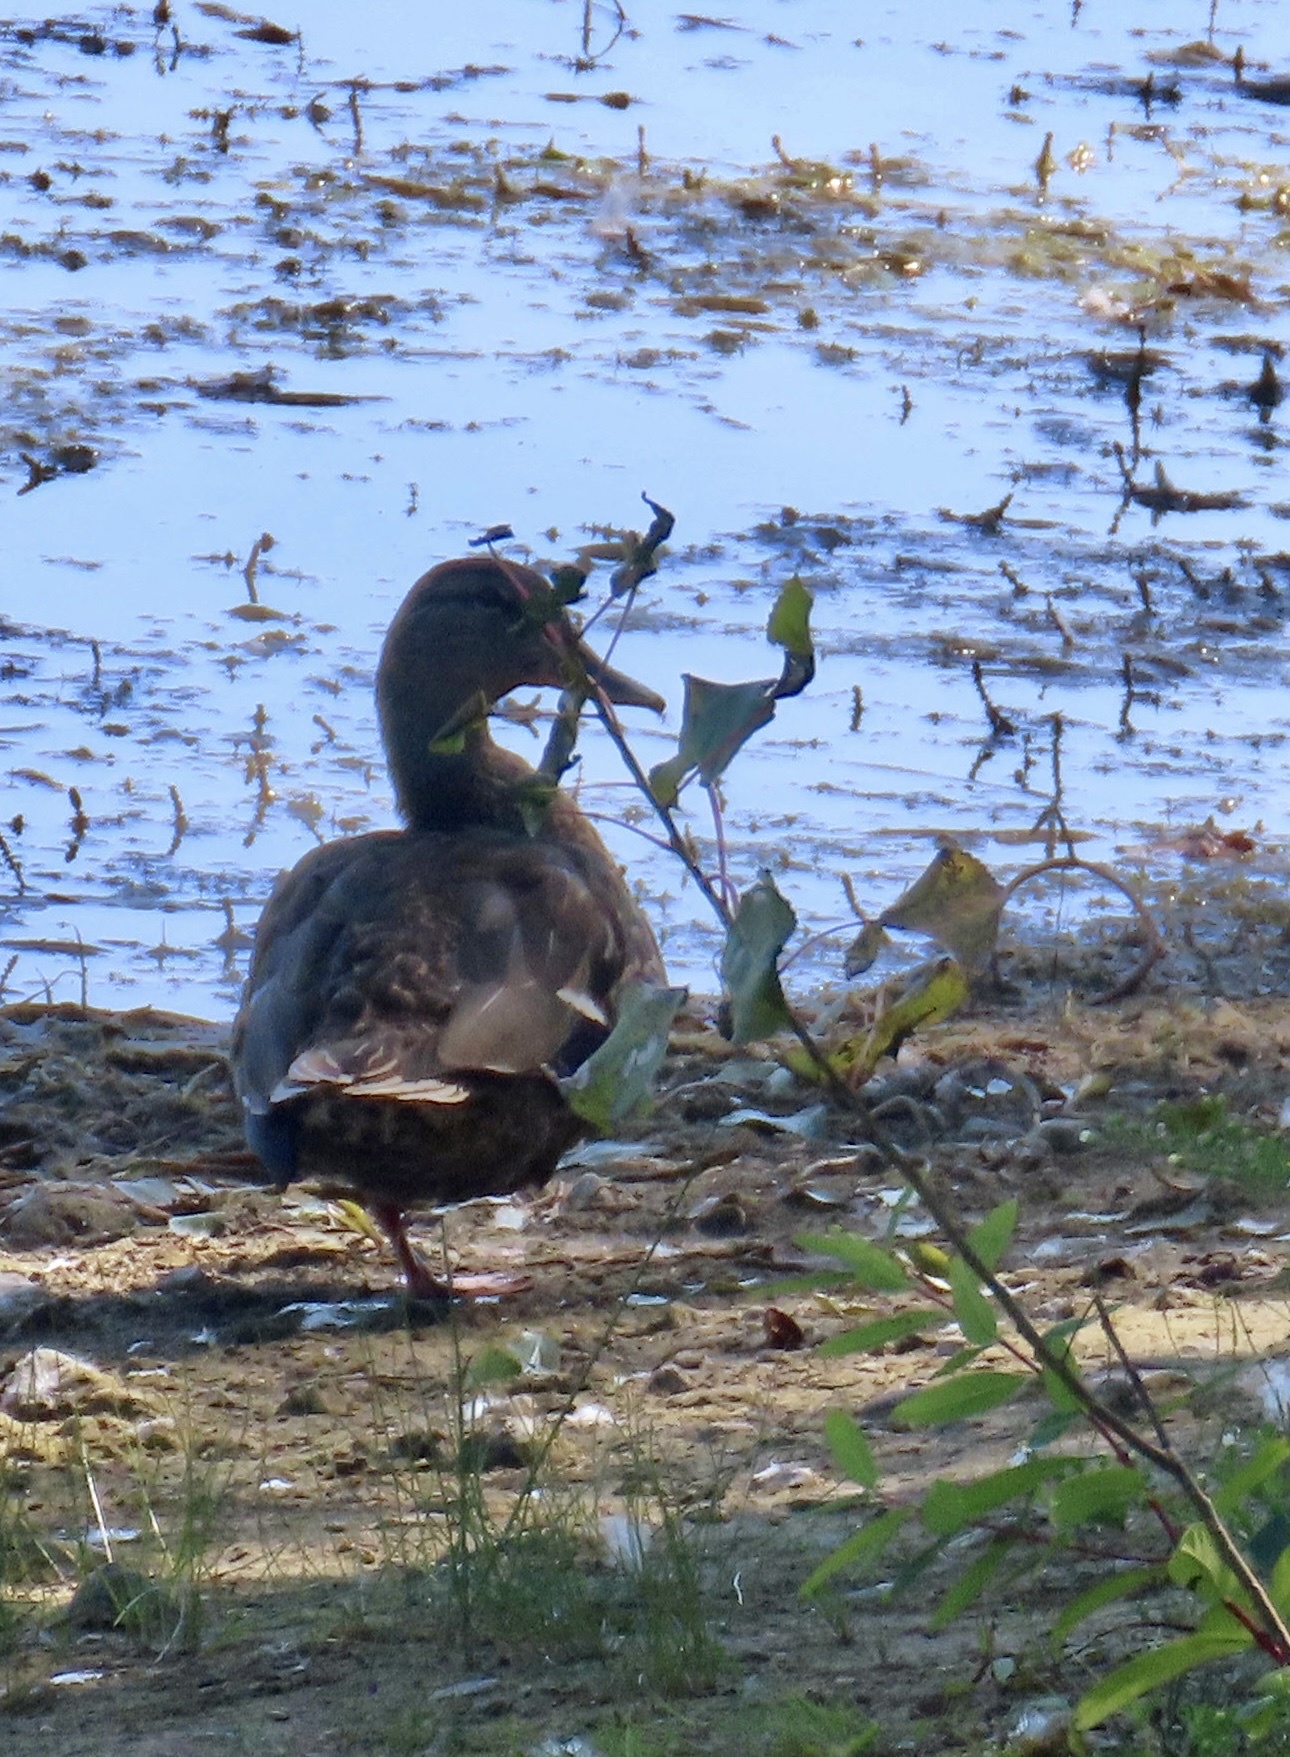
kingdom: Animalia
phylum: Chordata
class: Aves
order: Anseriformes
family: Anatidae
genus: Anas
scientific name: Anas platyrhynchos
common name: Mallard
